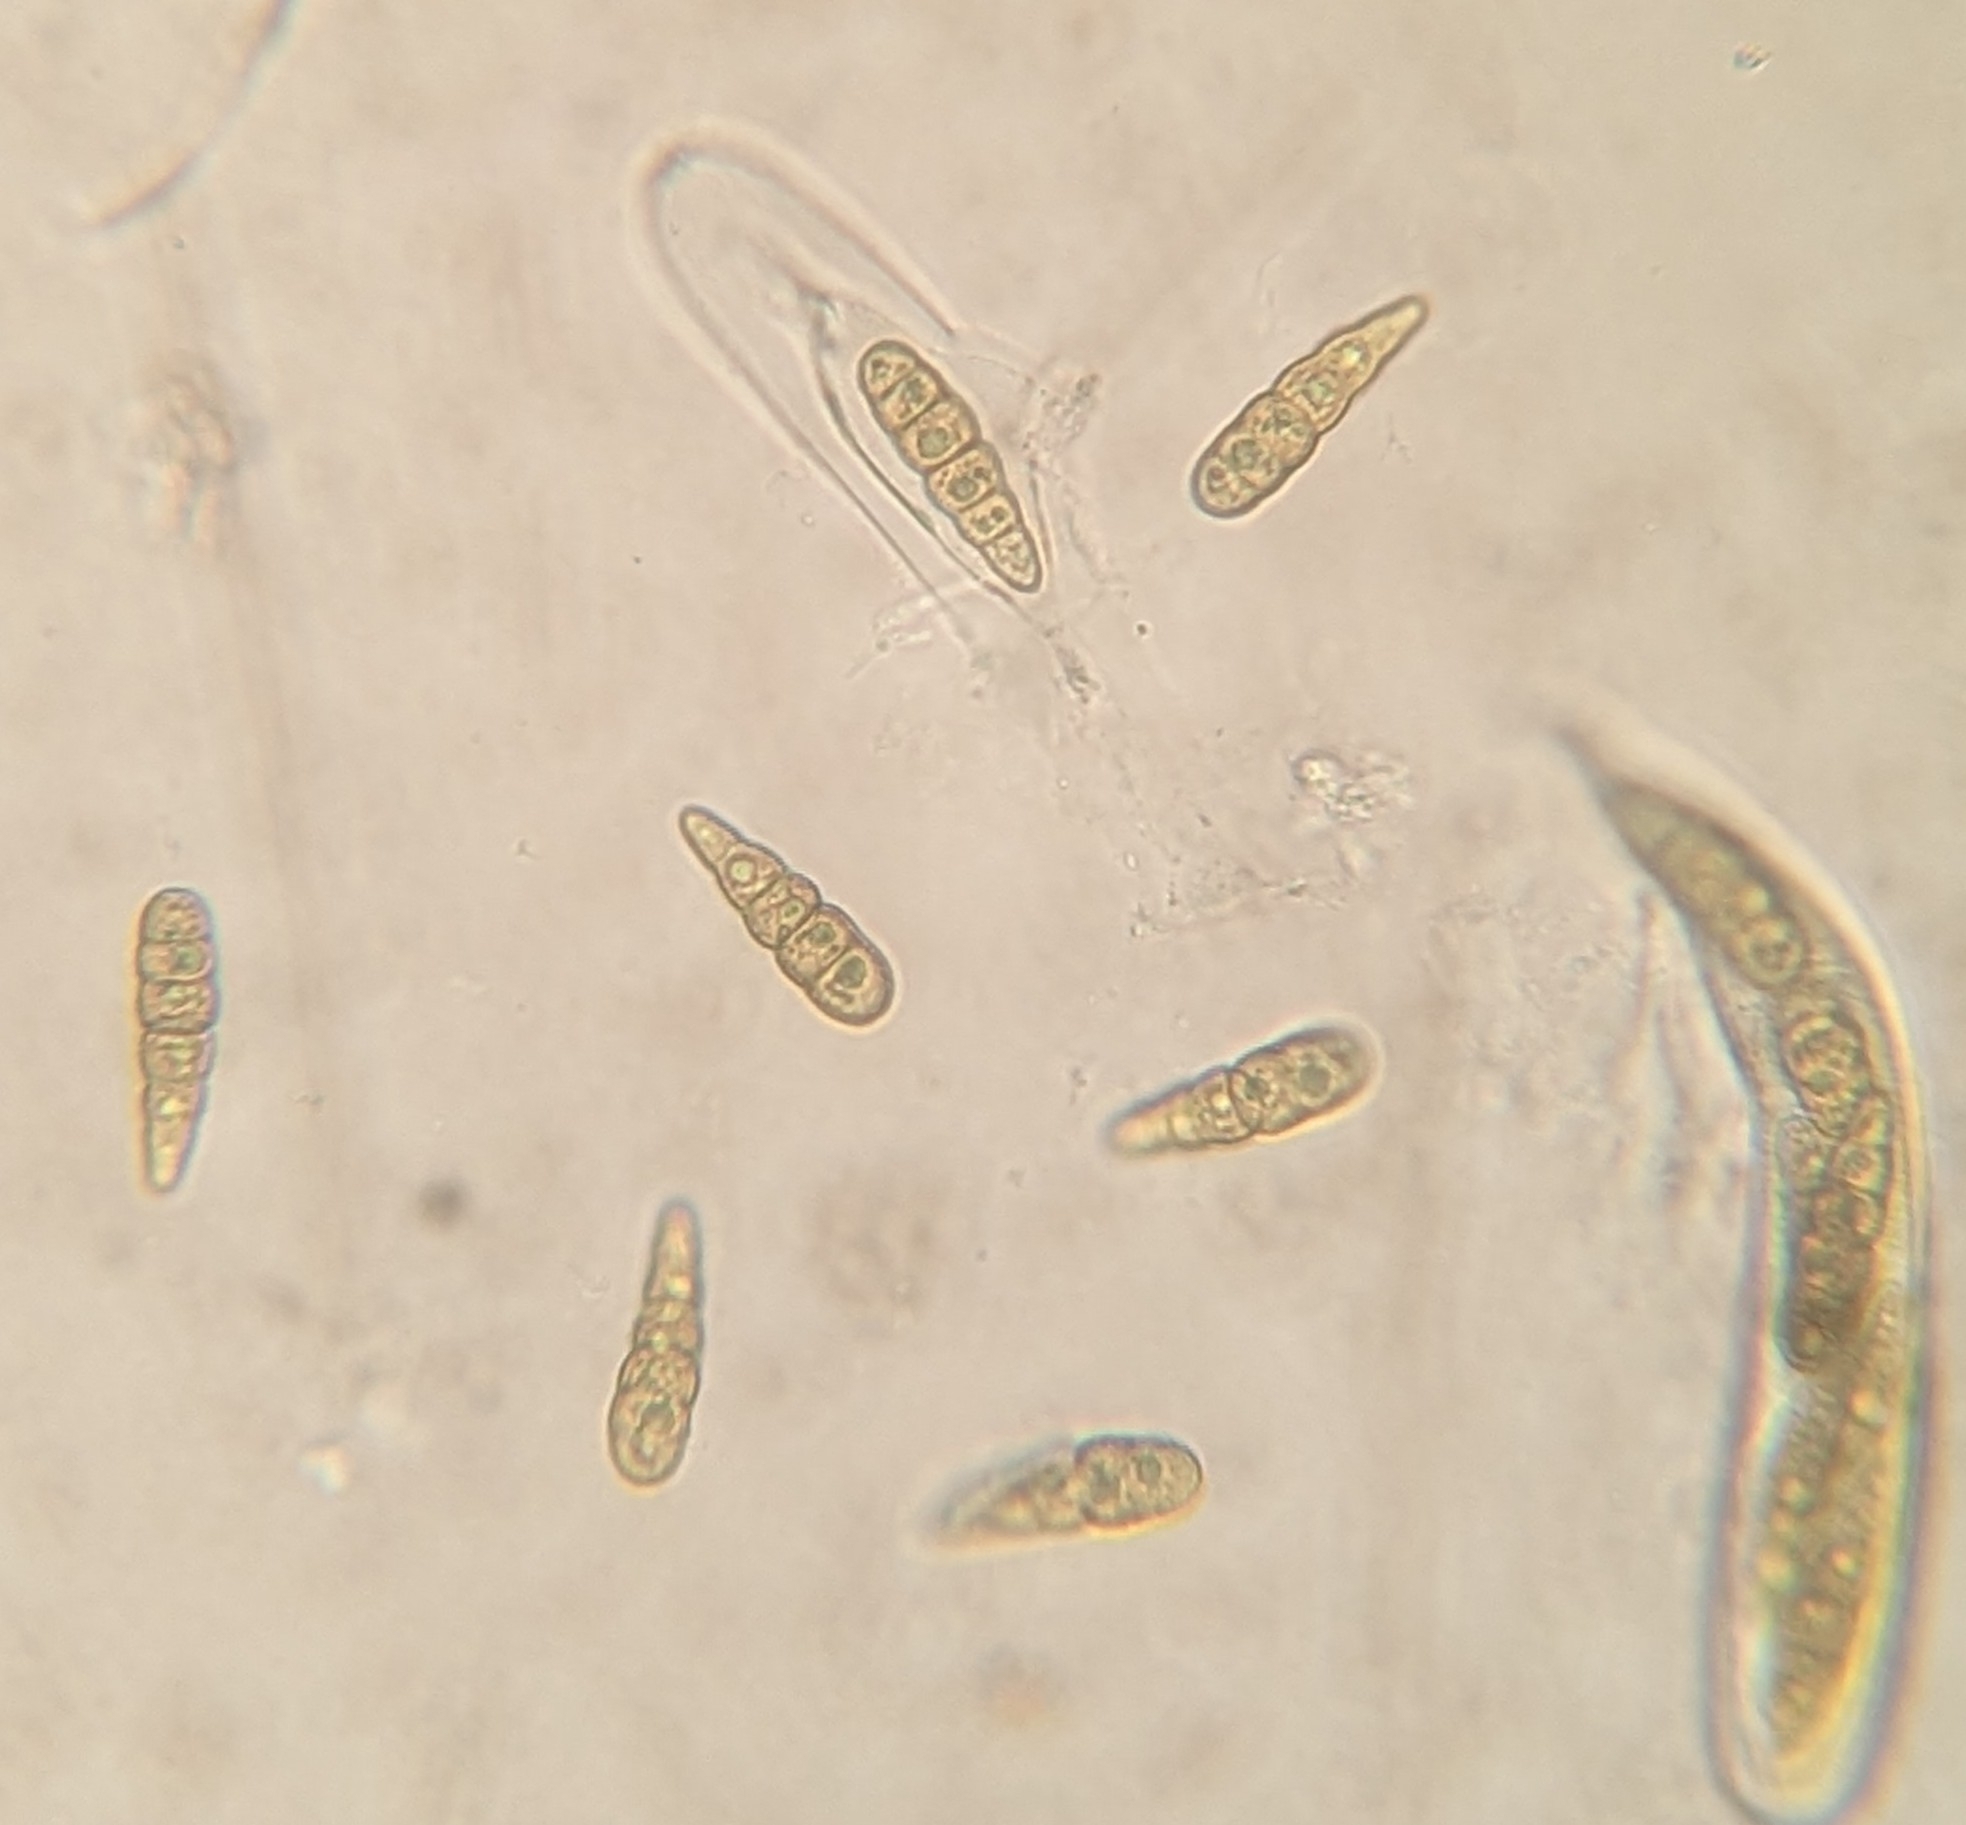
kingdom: Fungi
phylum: Ascomycota
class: Dothideomycetes
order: Pleosporales
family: Macrodiplodiopsidaceae
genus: Macrodiplodiopsis
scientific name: Macrodiplodiopsis desmazieri
